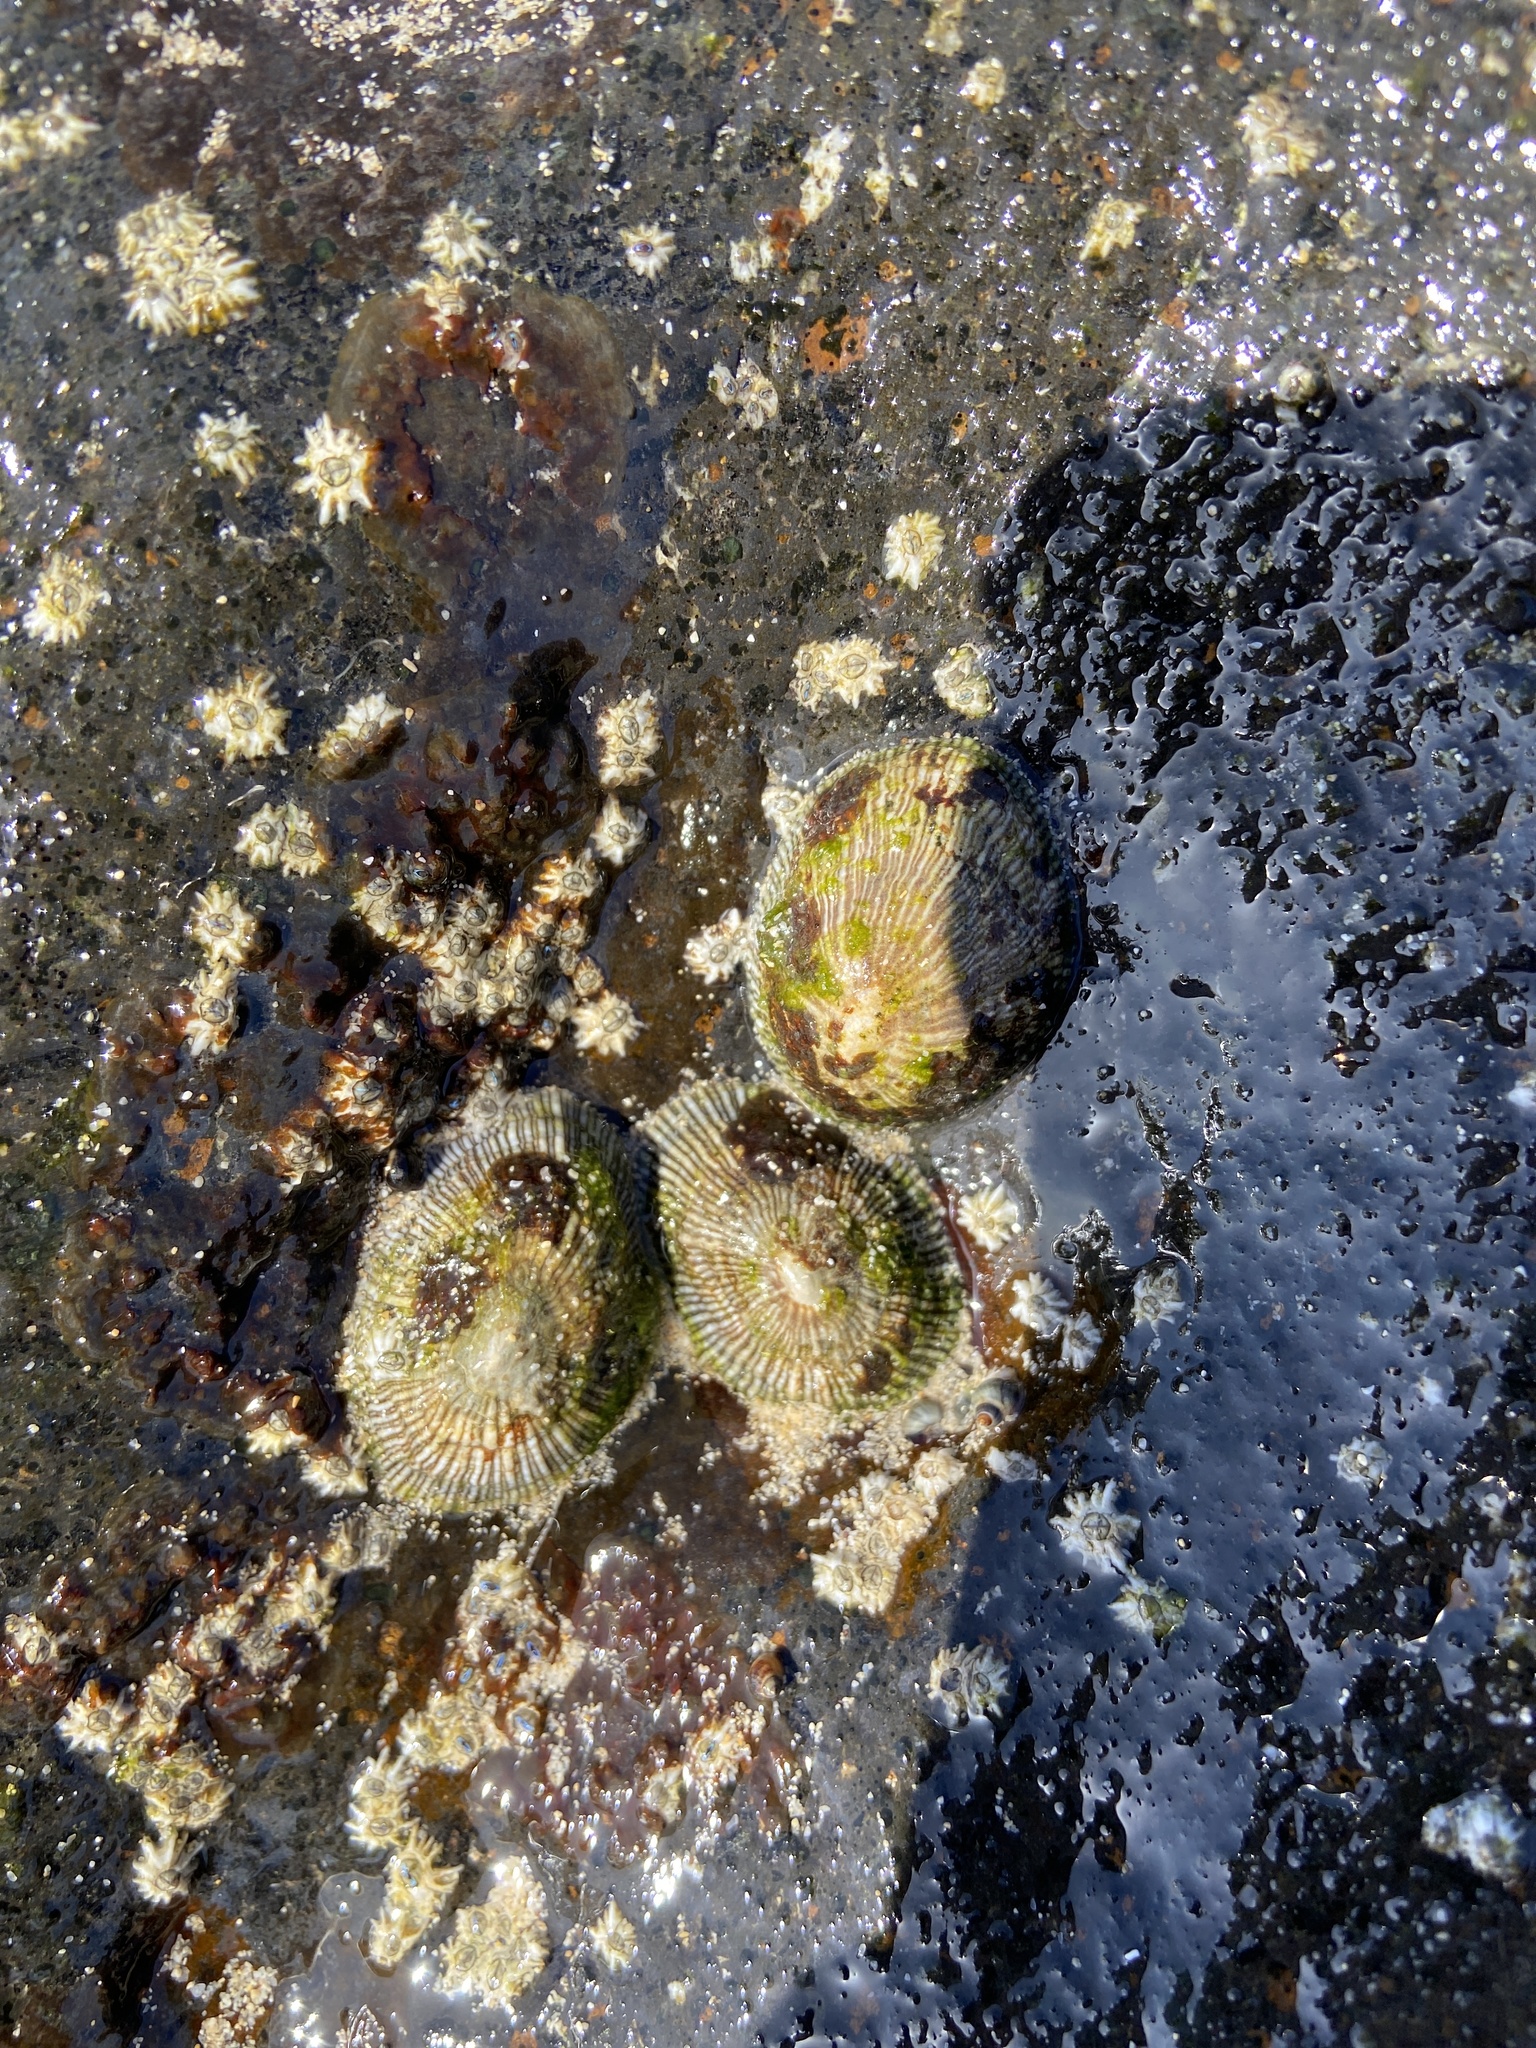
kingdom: Animalia
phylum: Mollusca
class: Gastropoda
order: Siphonariida
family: Siphonariidae
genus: Siphonaria
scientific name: Siphonaria pectinata
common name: Striped false limpet
